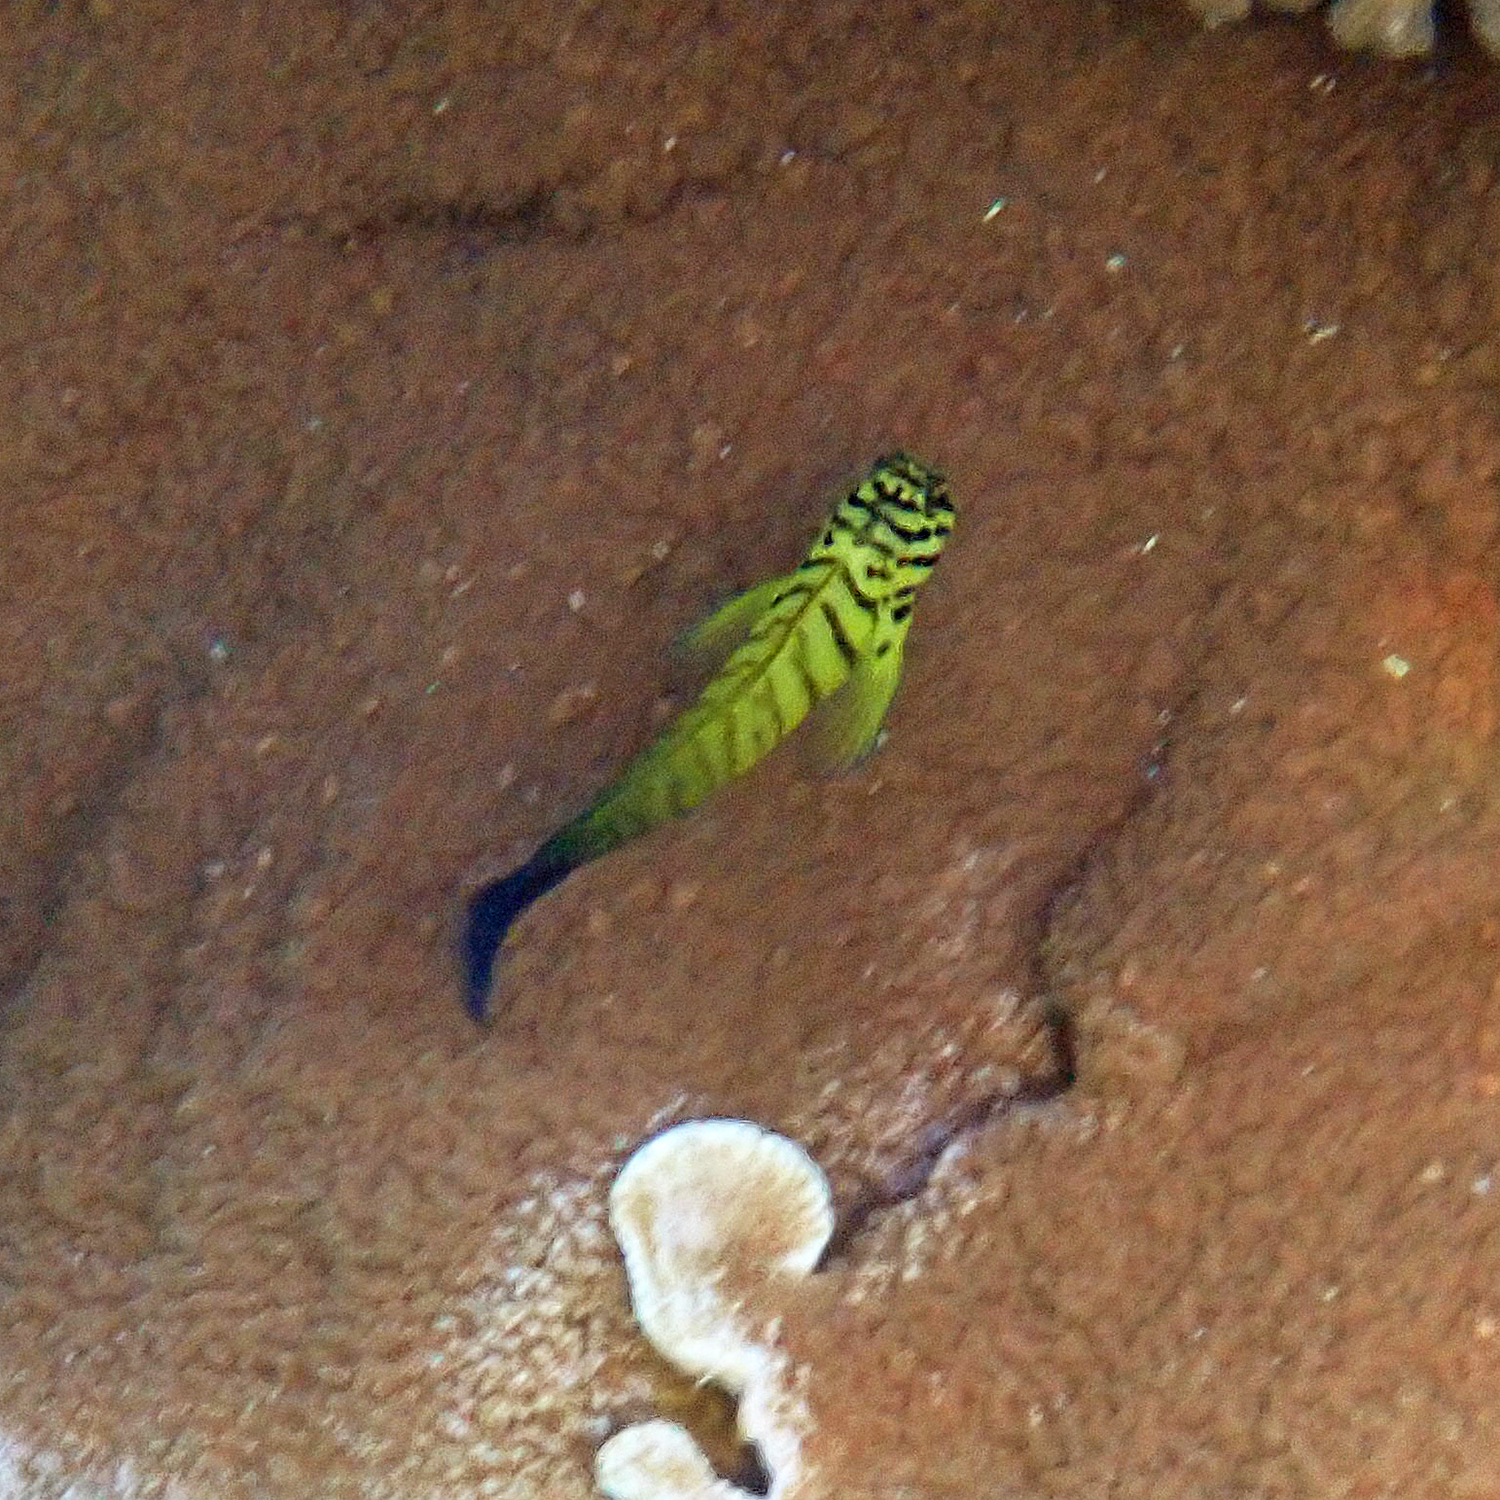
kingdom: Animalia
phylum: Chordata
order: Perciformes
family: Blenniidae
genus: Cirripectes
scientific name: Cirripectes castaneus
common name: Chestnut blenny
